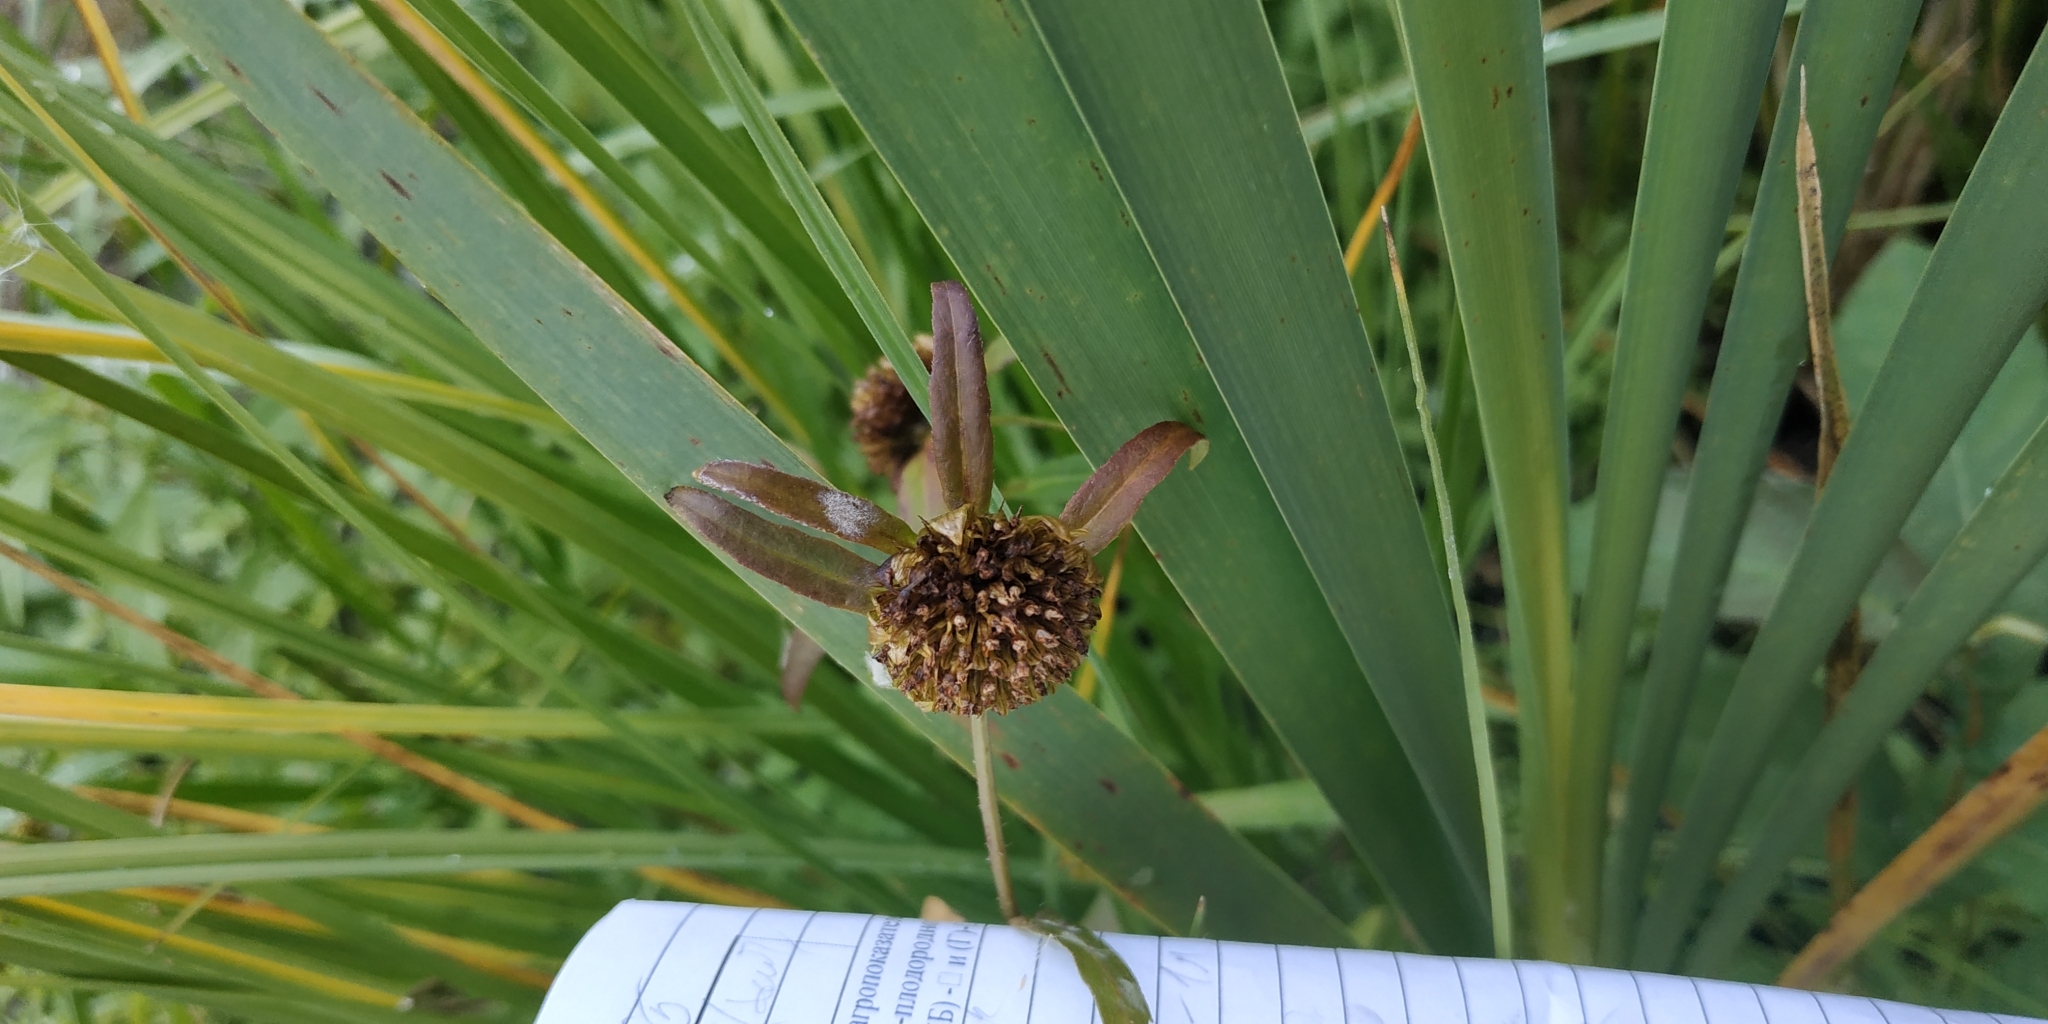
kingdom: Plantae
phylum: Tracheophyta
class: Magnoliopsida
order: Asterales
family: Asteraceae
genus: Bidens
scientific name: Bidens cernua
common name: Nodding bur-marigold
